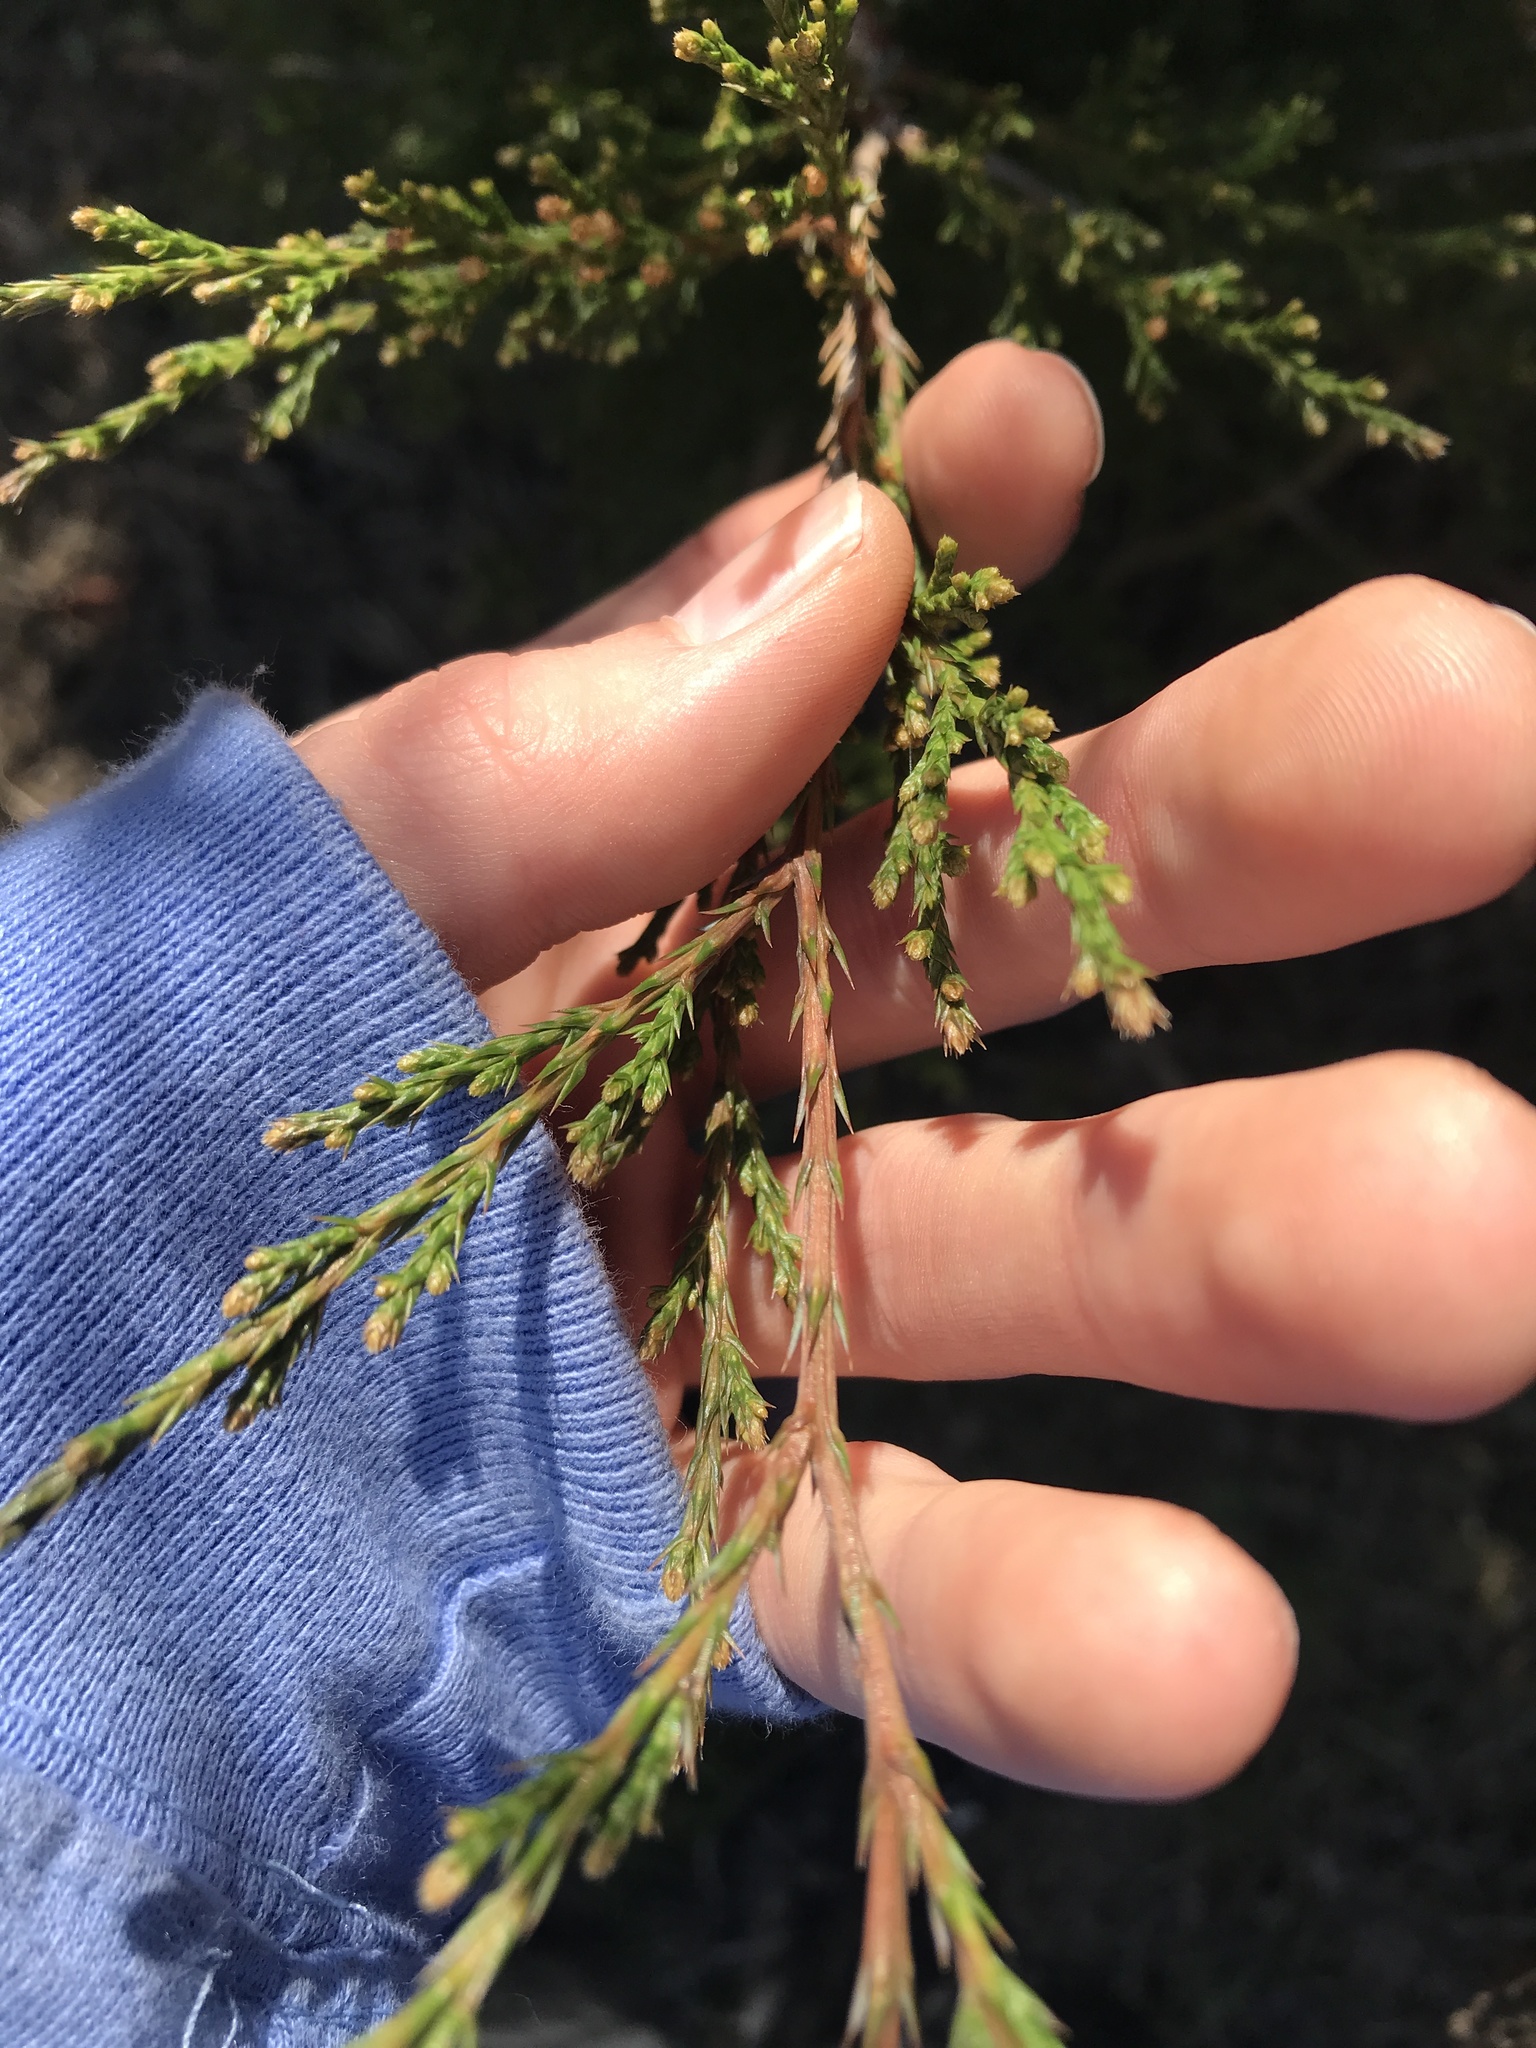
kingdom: Plantae
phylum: Tracheophyta
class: Pinopsida
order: Pinales
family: Cupressaceae
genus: Juniperus
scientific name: Juniperus virginiana
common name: Red juniper
